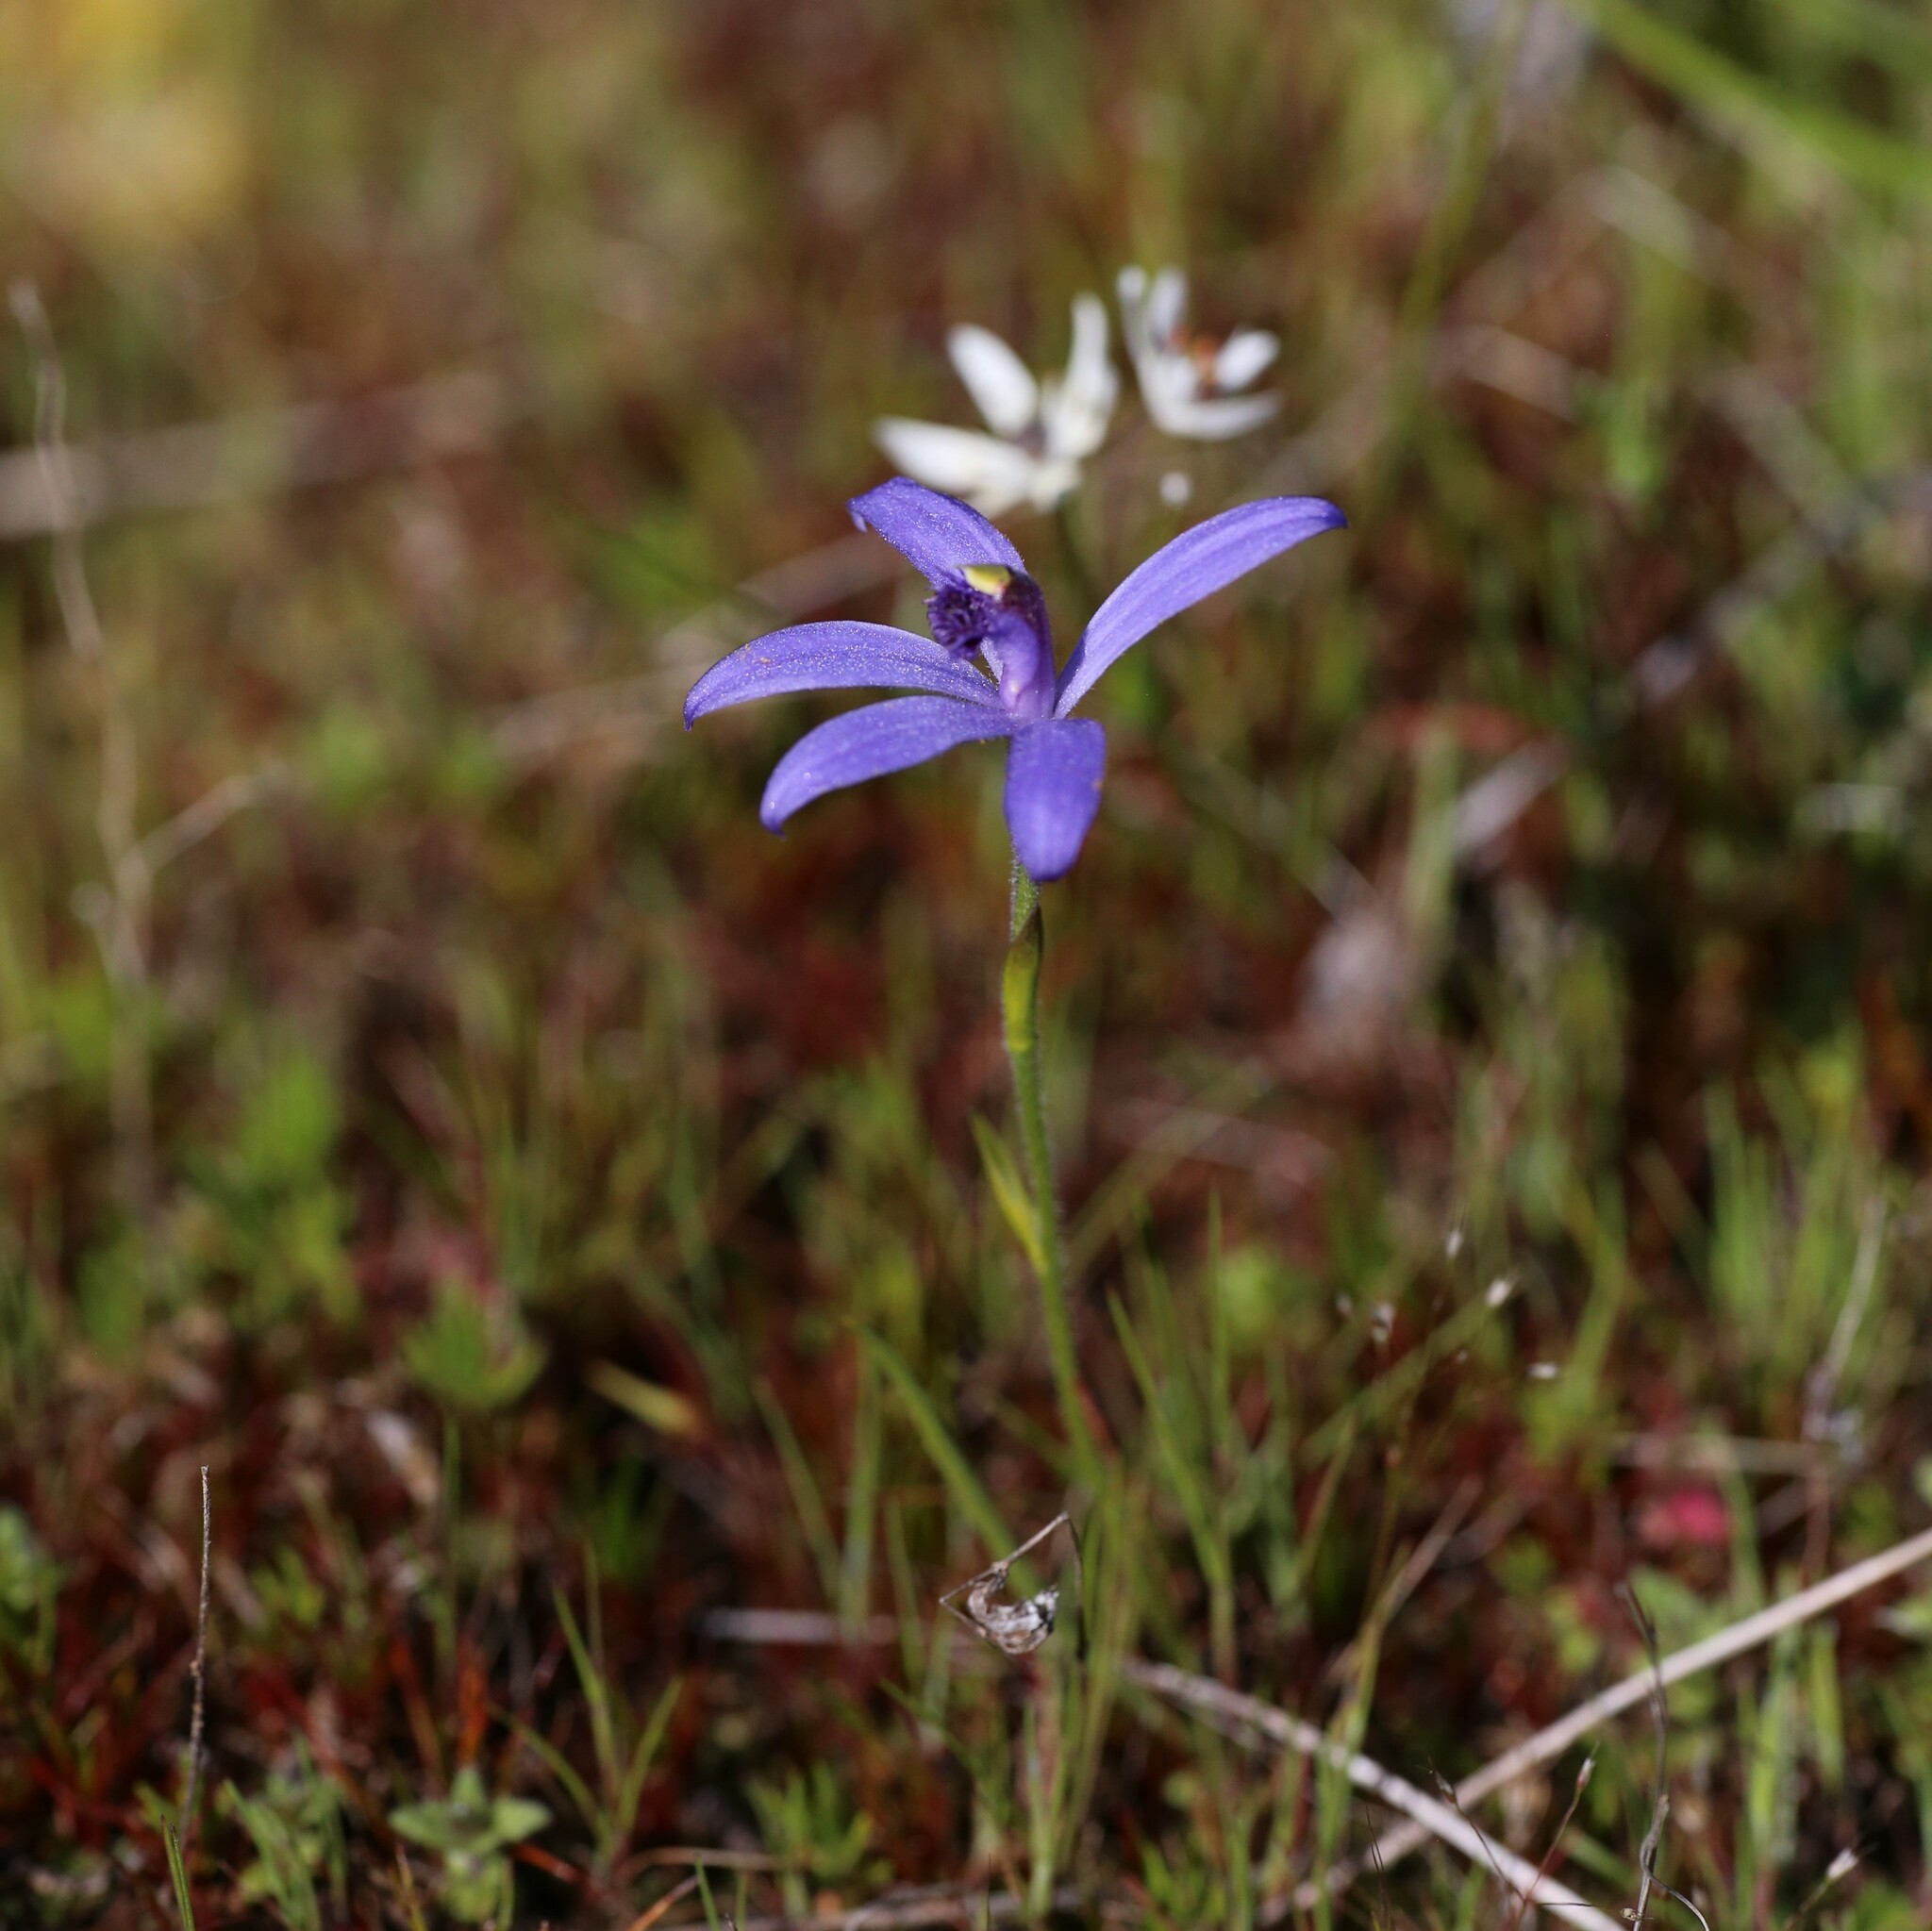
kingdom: Plantae
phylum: Tracheophyta
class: Liliopsida
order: Asparagales
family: Orchidaceae
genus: Pheladenia
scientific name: Pheladenia deformis
